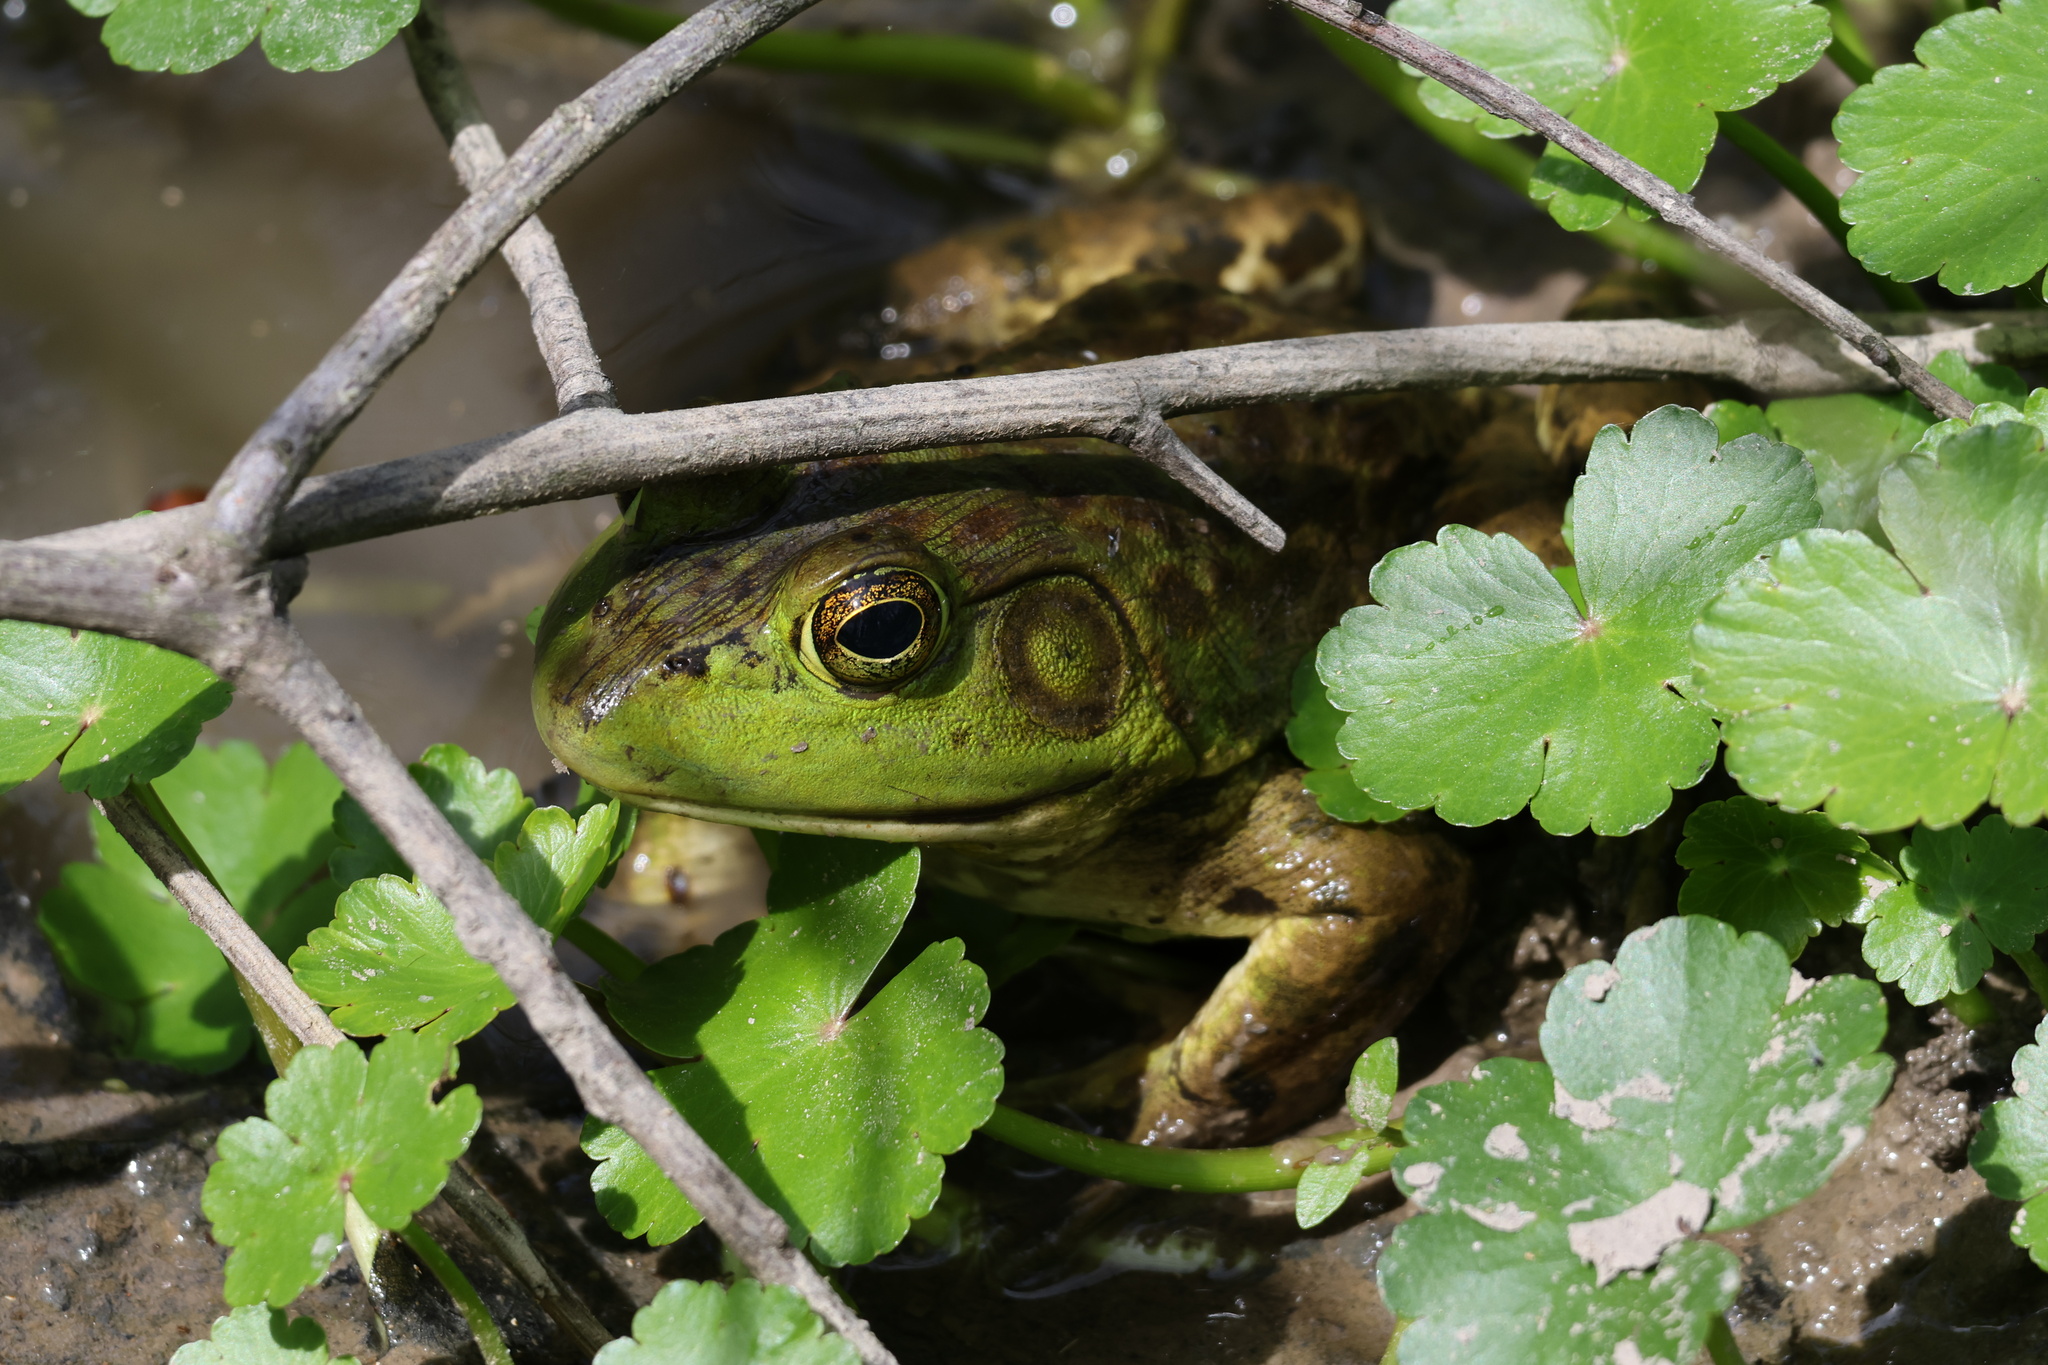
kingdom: Animalia
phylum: Chordata
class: Amphibia
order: Anura
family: Ranidae
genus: Lithobates
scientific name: Lithobates catesbeianus
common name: American bullfrog
